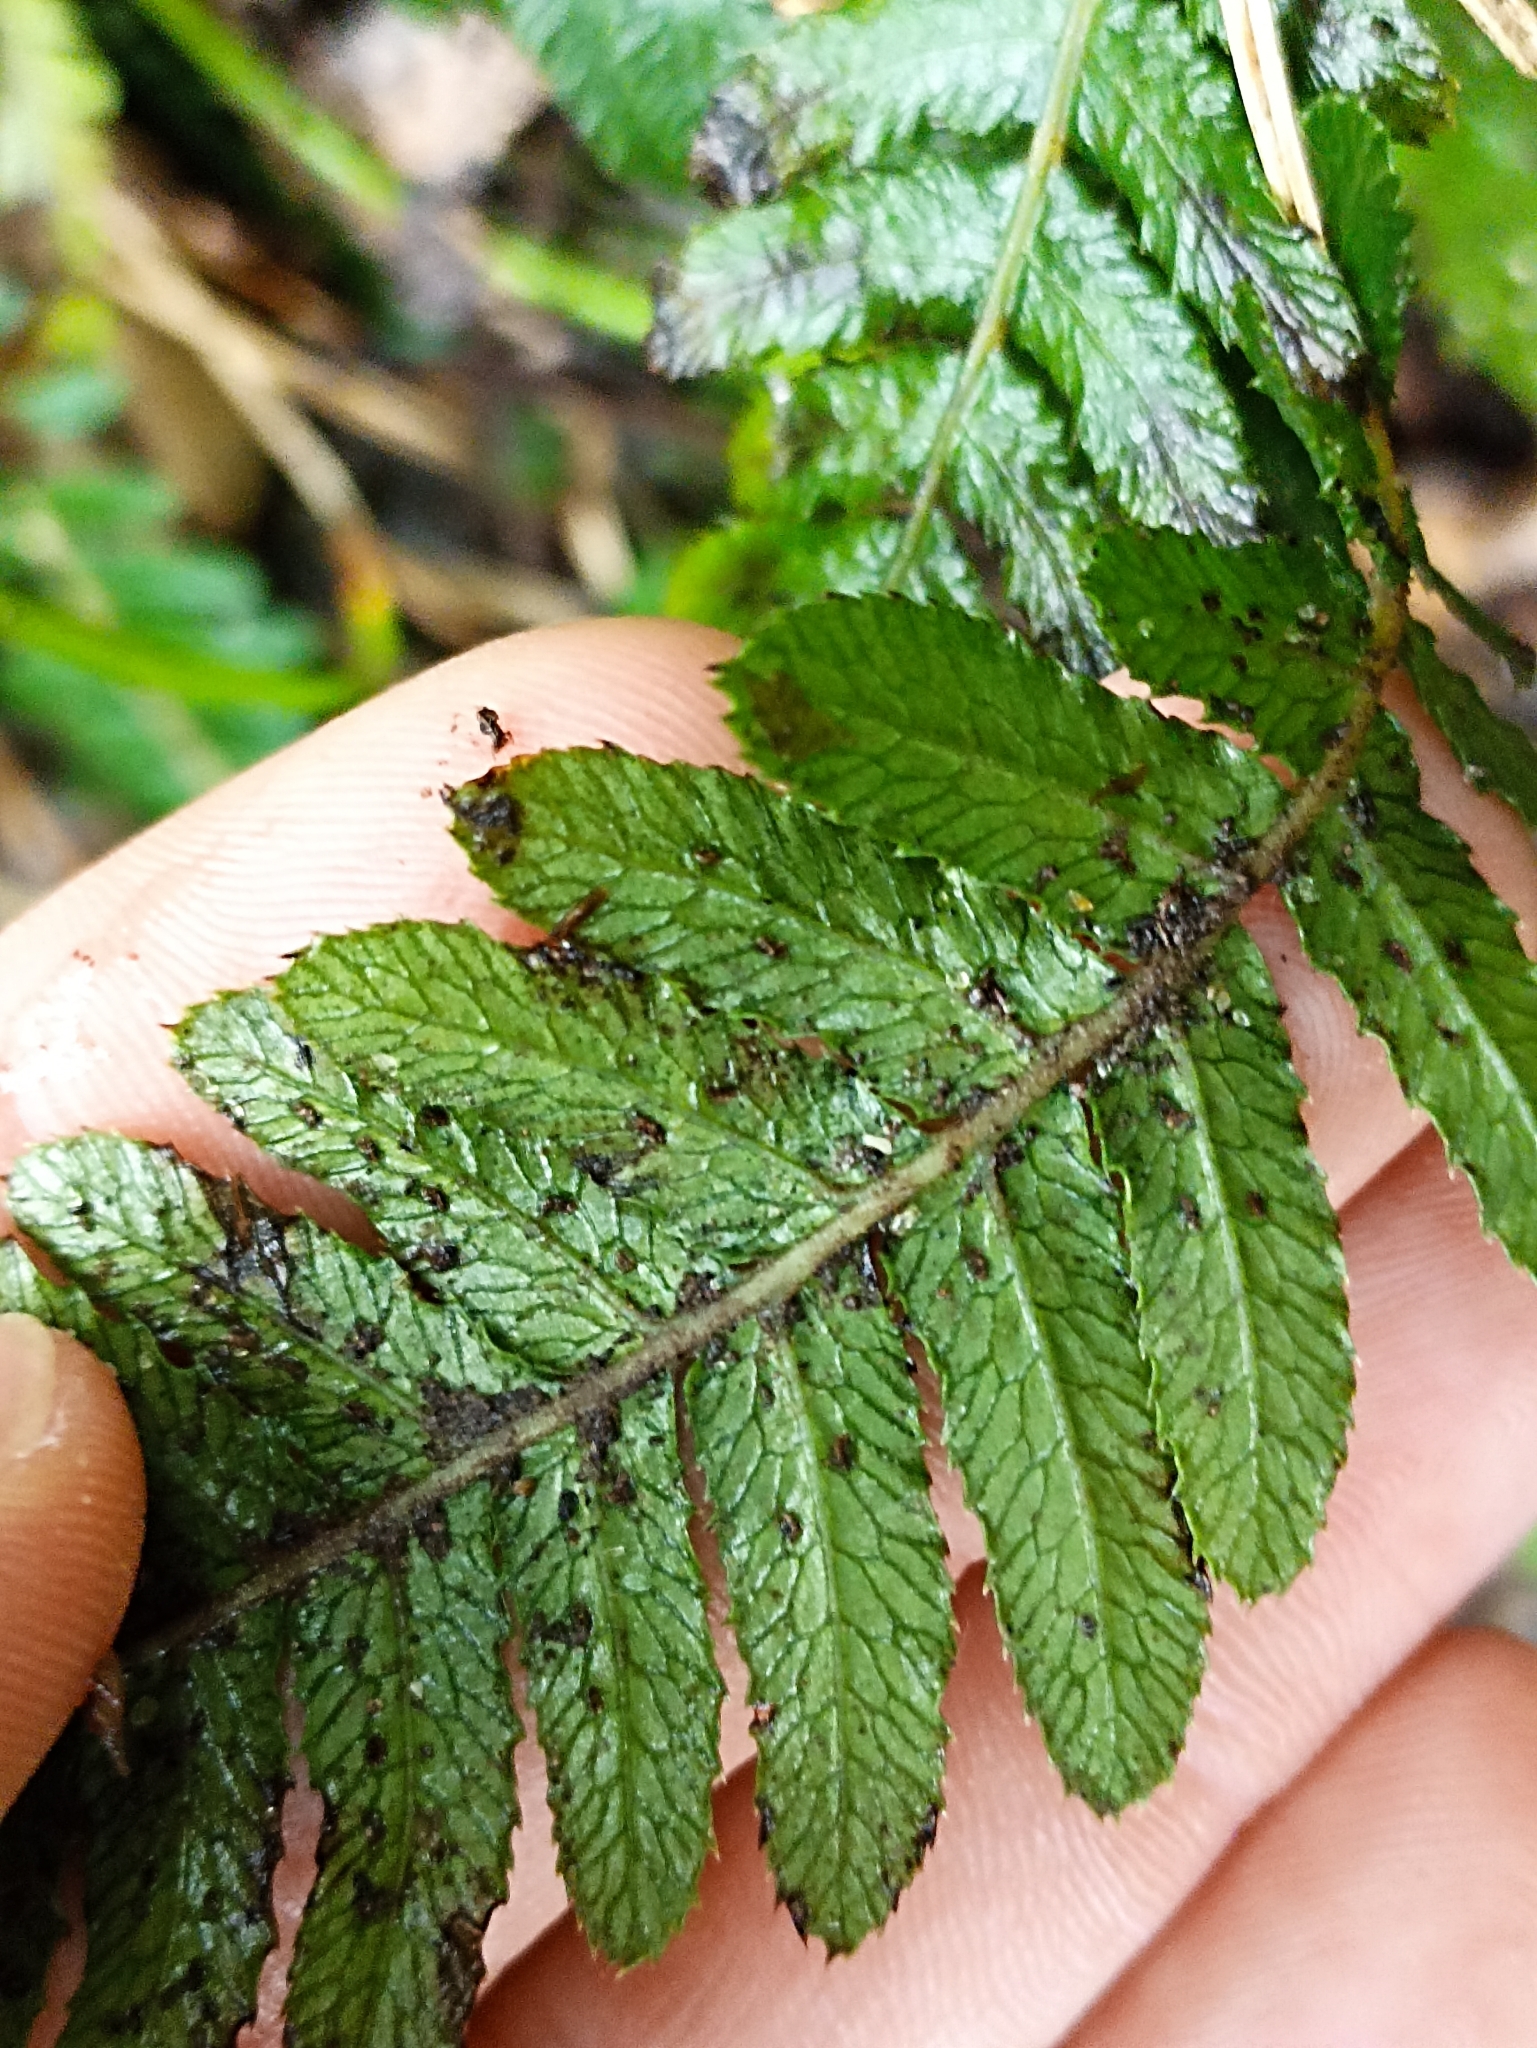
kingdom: Plantae
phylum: Tracheophyta
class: Polypodiopsida
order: Polypodiales
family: Blechnaceae
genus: Doodia
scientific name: Doodia australis
